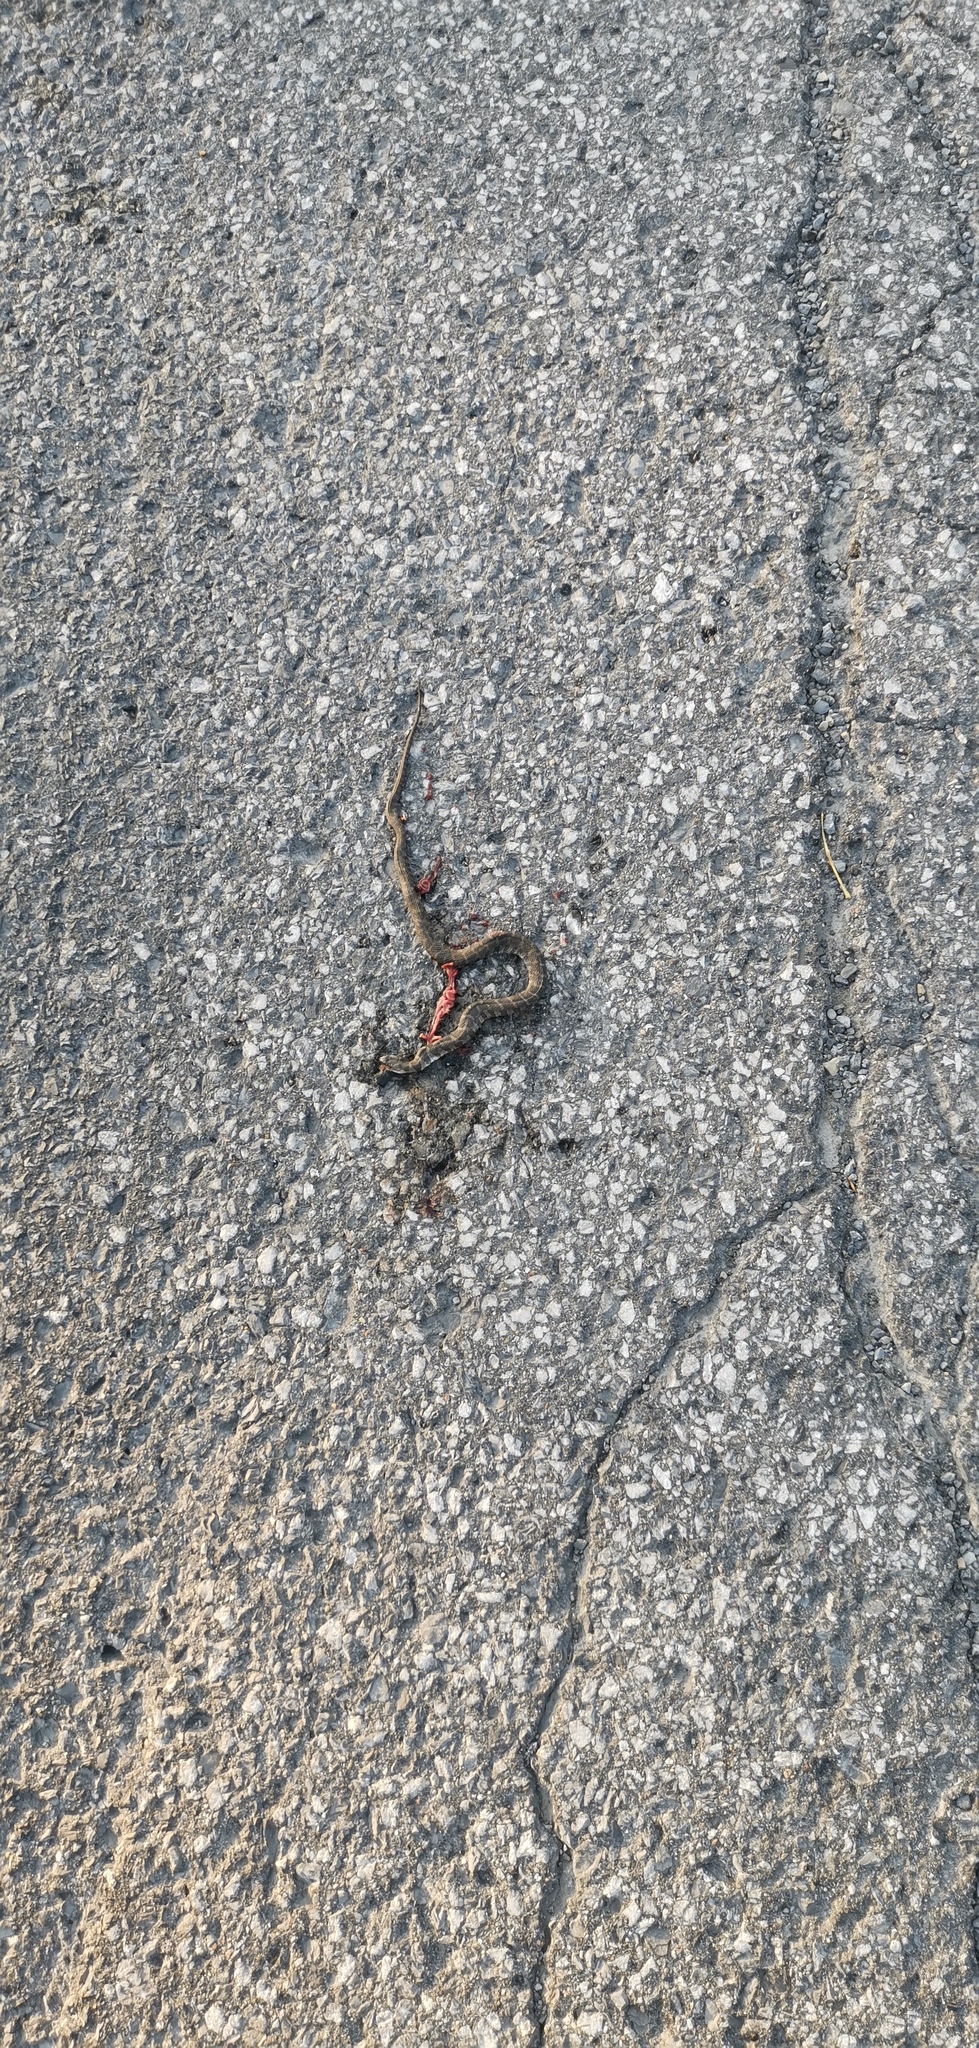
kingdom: Animalia
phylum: Chordata
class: Squamata
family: Colubridae
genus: Nerodia
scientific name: Nerodia sipedon
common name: Northern water snake
